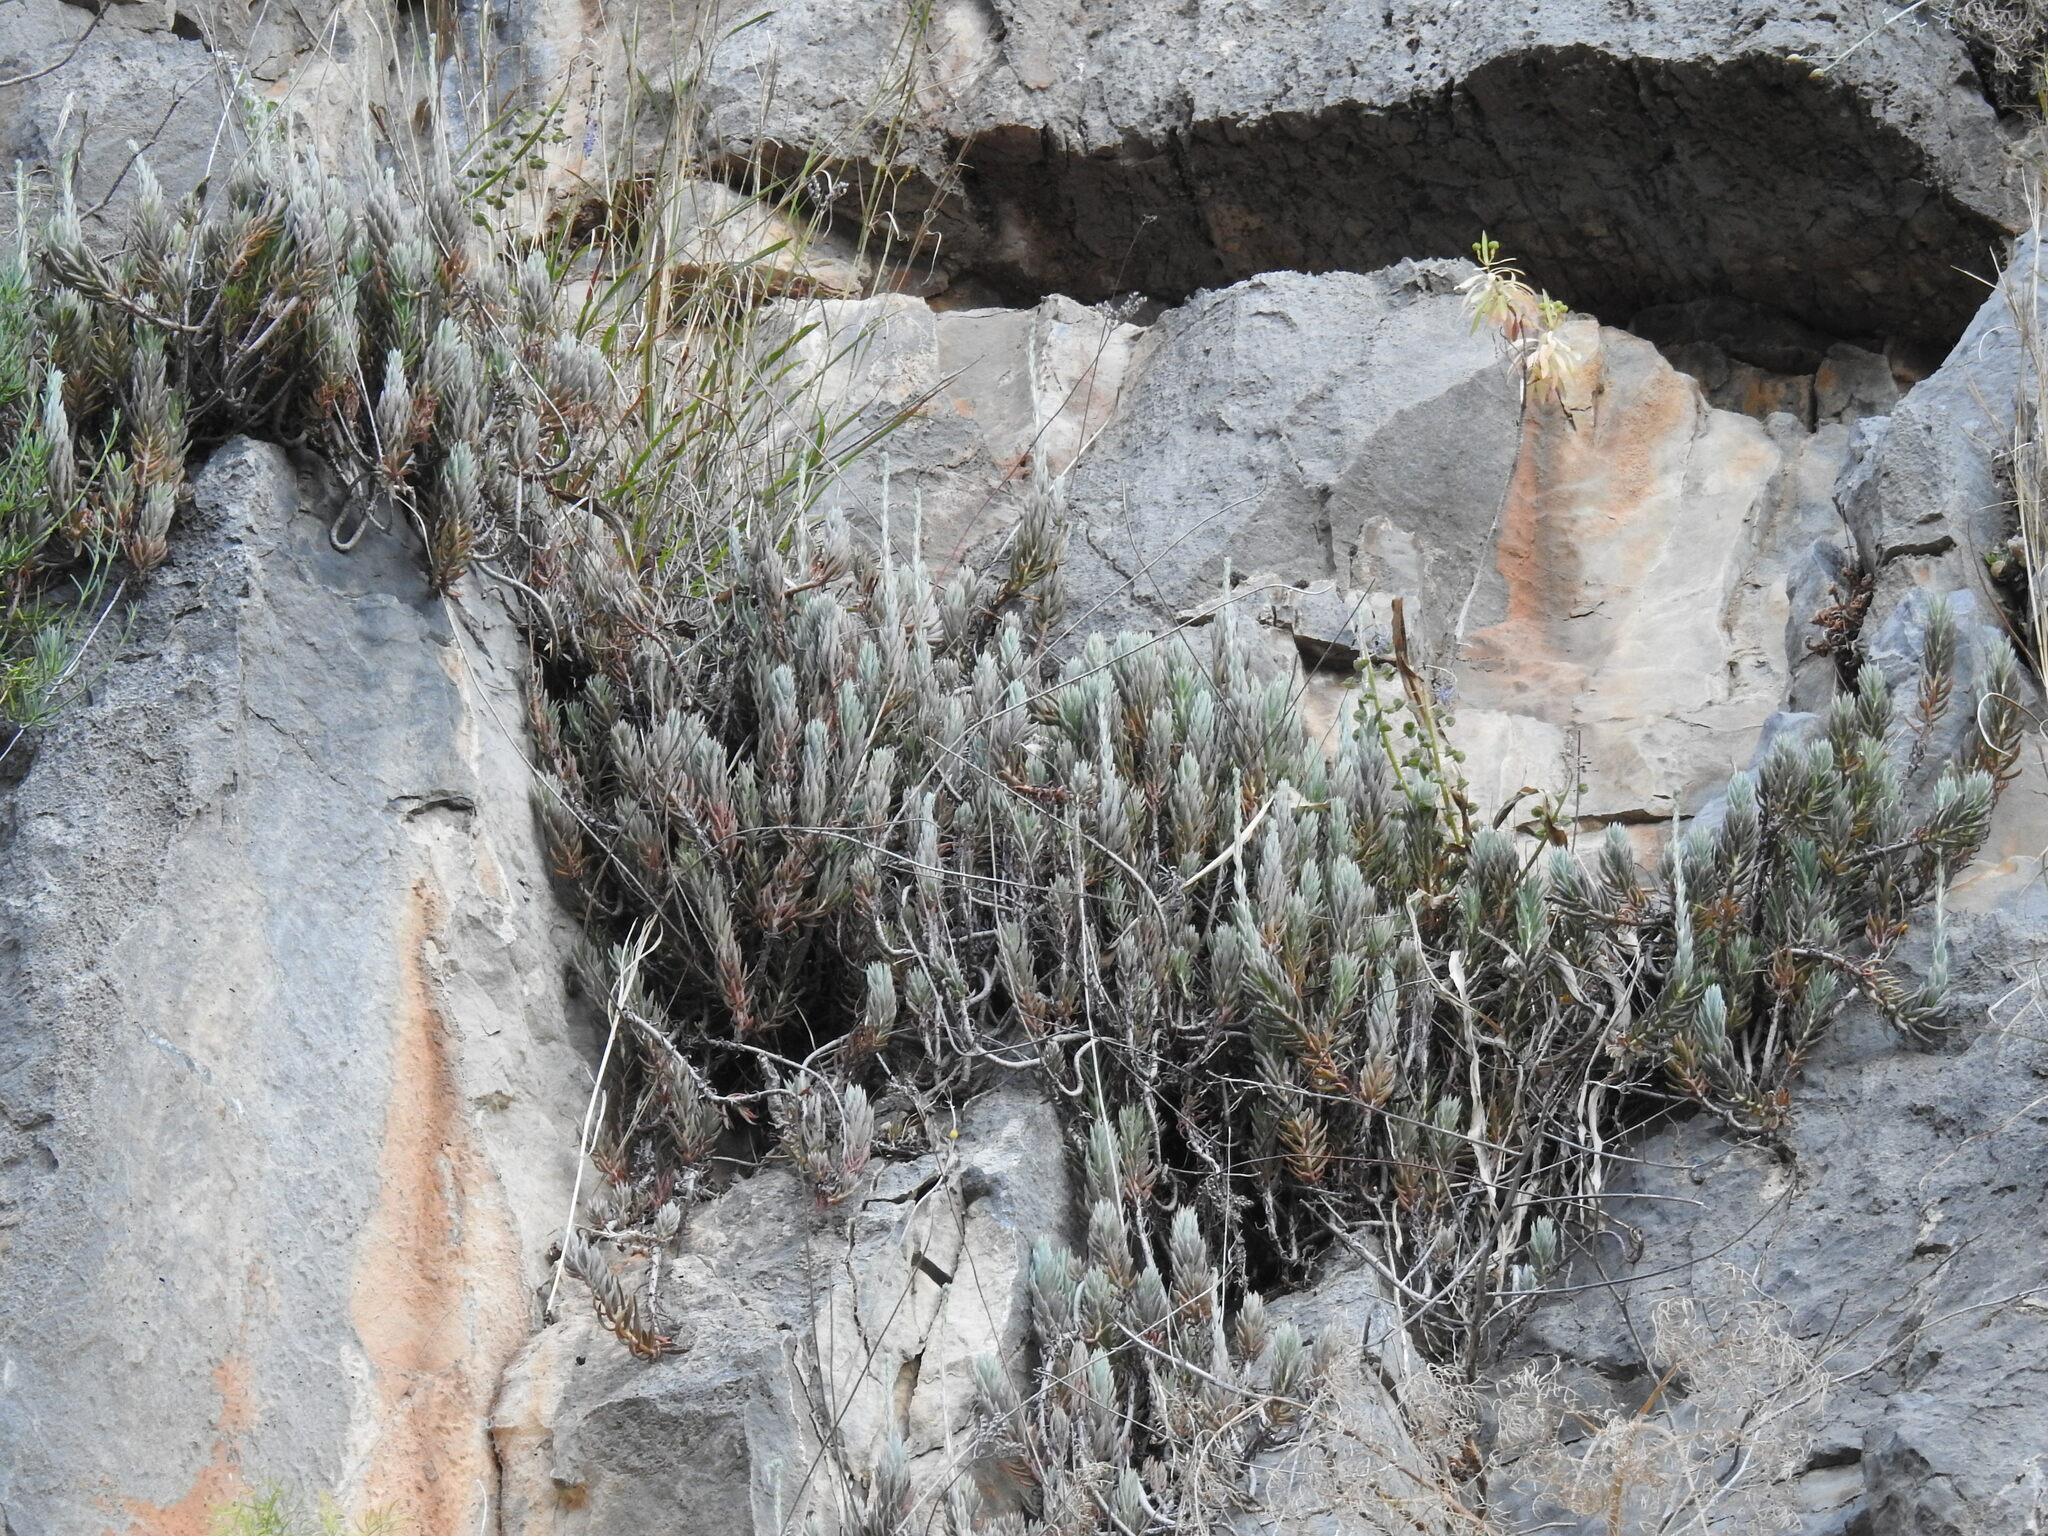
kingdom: Plantae
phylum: Tracheophyta
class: Magnoliopsida
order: Saxifragales
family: Crassulaceae
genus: Petrosedum
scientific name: Petrosedum sediforme
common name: Pale stonecrop
